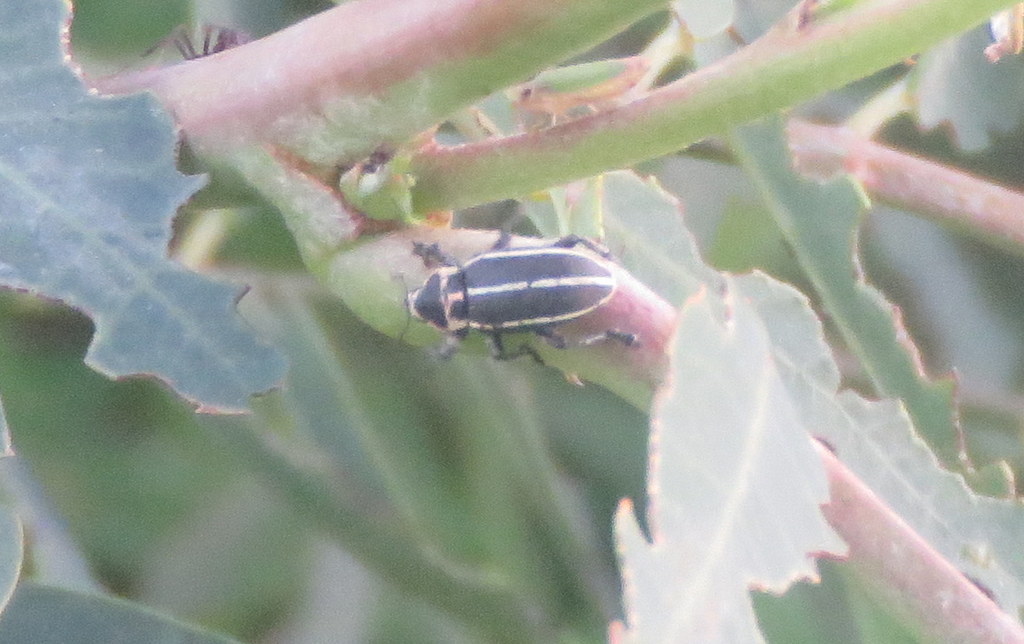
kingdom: Animalia
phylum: Arthropoda
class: Insecta
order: Coleoptera
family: Curculionidae
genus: Eudiagogus
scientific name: Eudiagogus episcopalis
